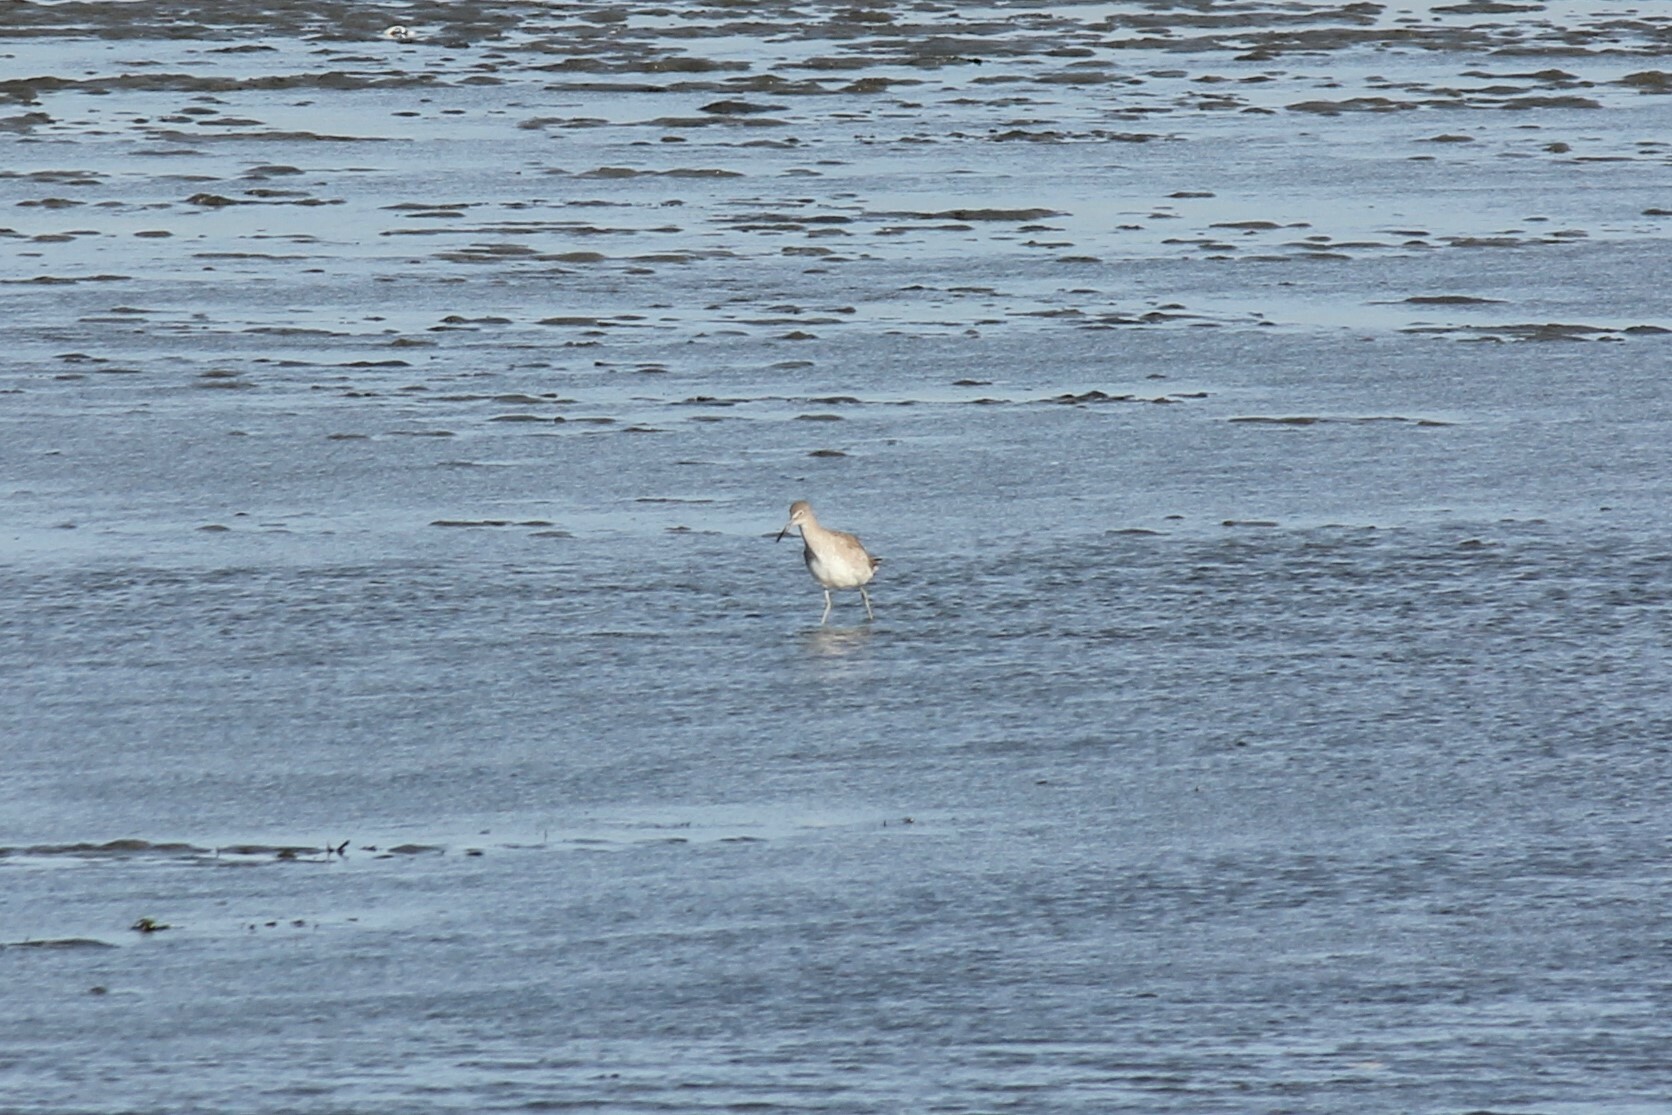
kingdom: Animalia
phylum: Chordata
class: Aves
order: Charadriiformes
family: Scolopacidae
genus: Tringa
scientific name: Tringa semipalmata
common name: Willet
